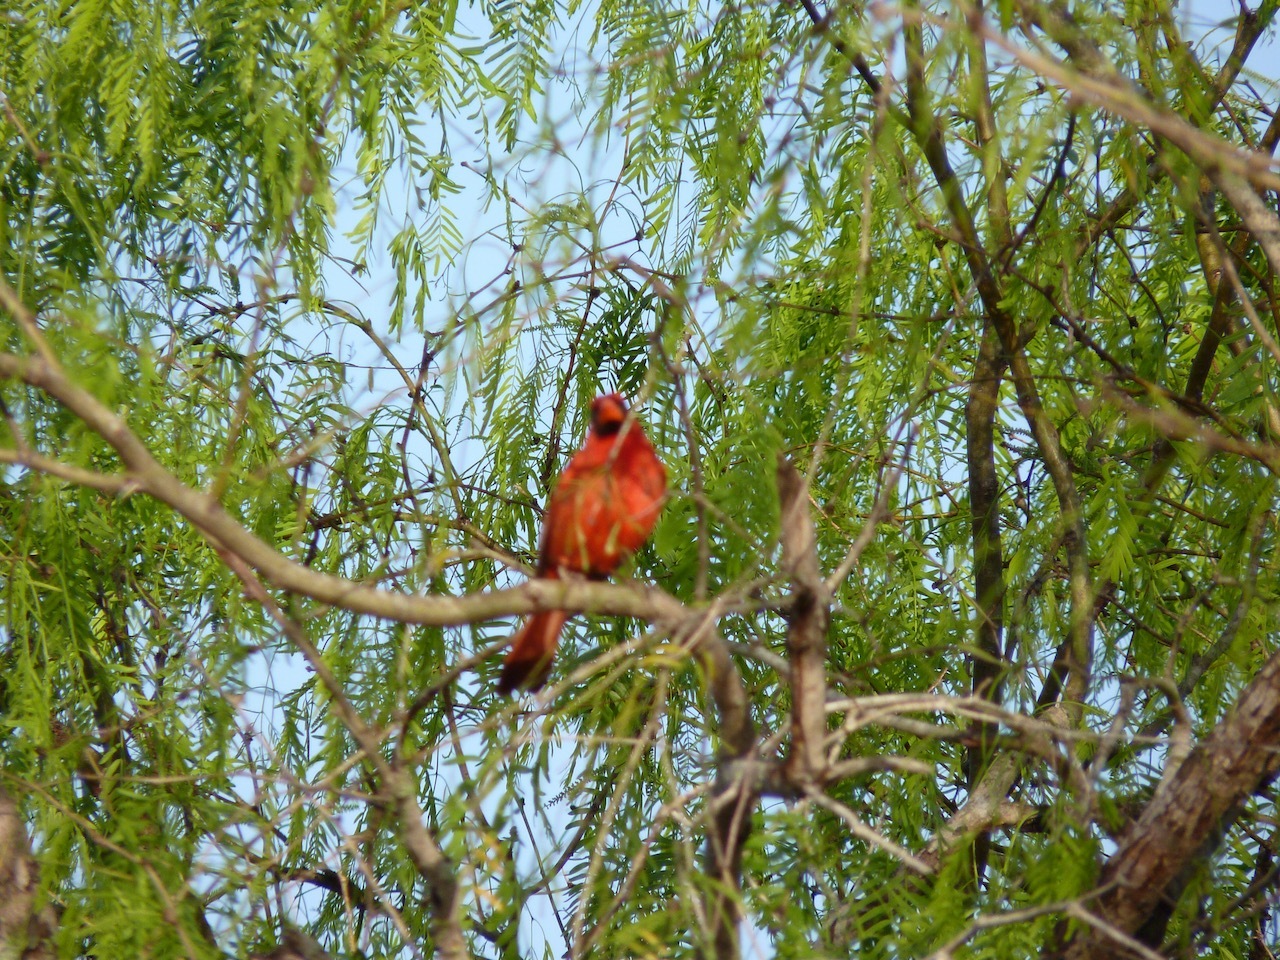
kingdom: Animalia
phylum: Chordata
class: Aves
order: Passeriformes
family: Cardinalidae
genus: Cardinalis
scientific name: Cardinalis cardinalis
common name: Northern cardinal
